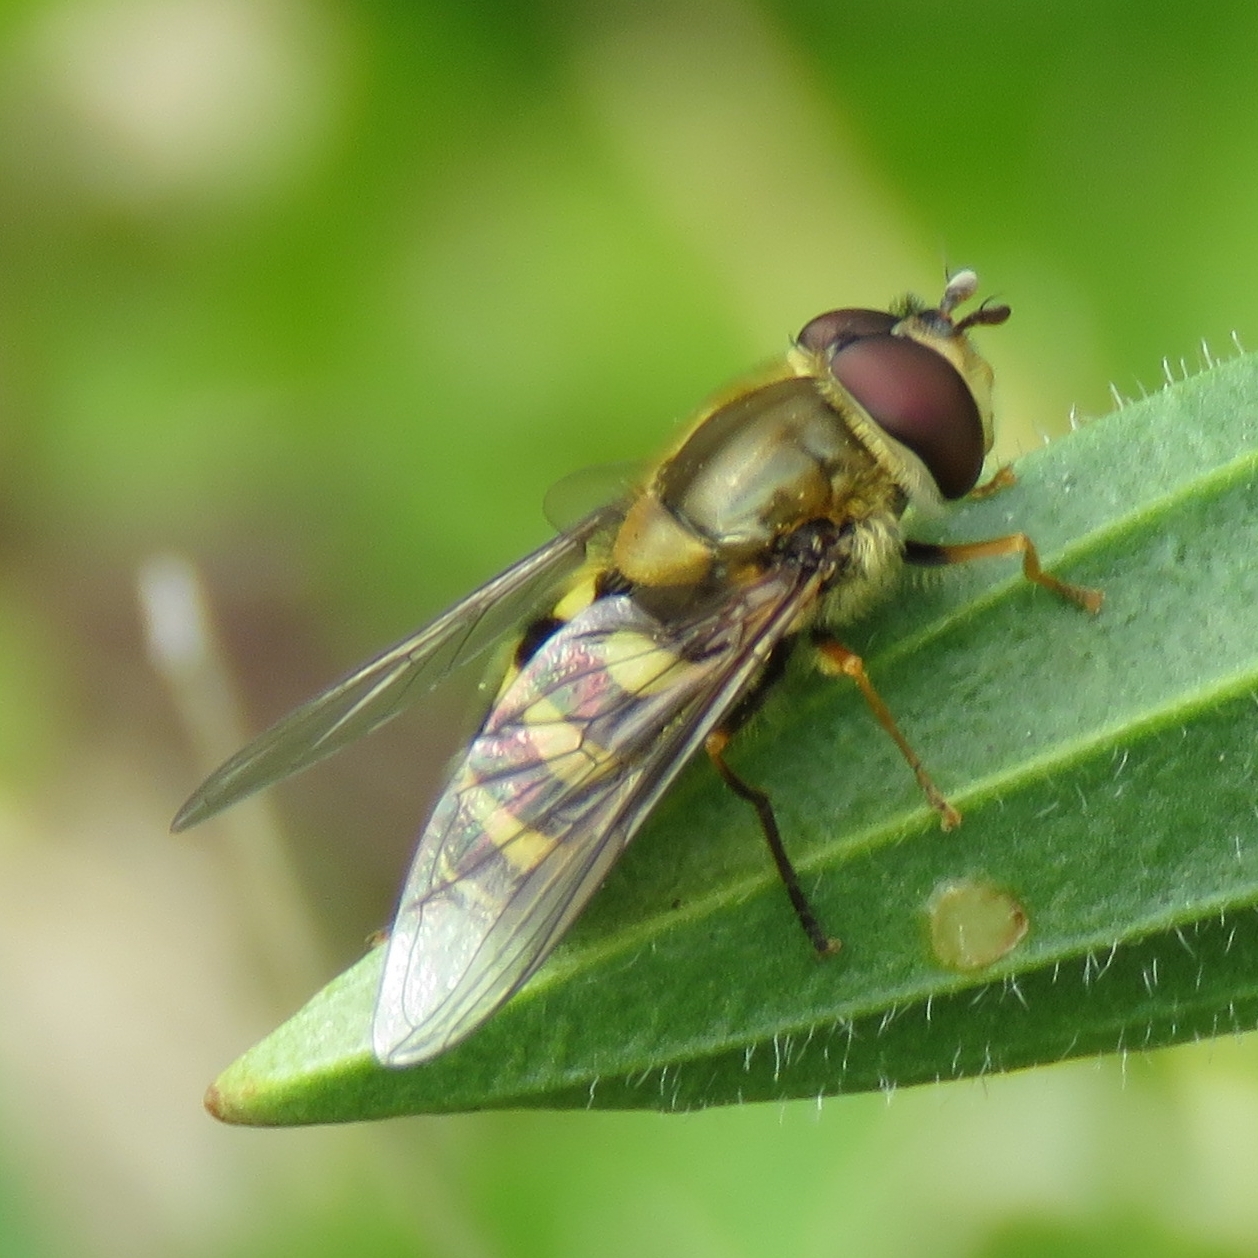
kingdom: Animalia
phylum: Arthropoda
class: Insecta
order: Diptera
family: Syrphidae
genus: Syrphus
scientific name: Syrphus
